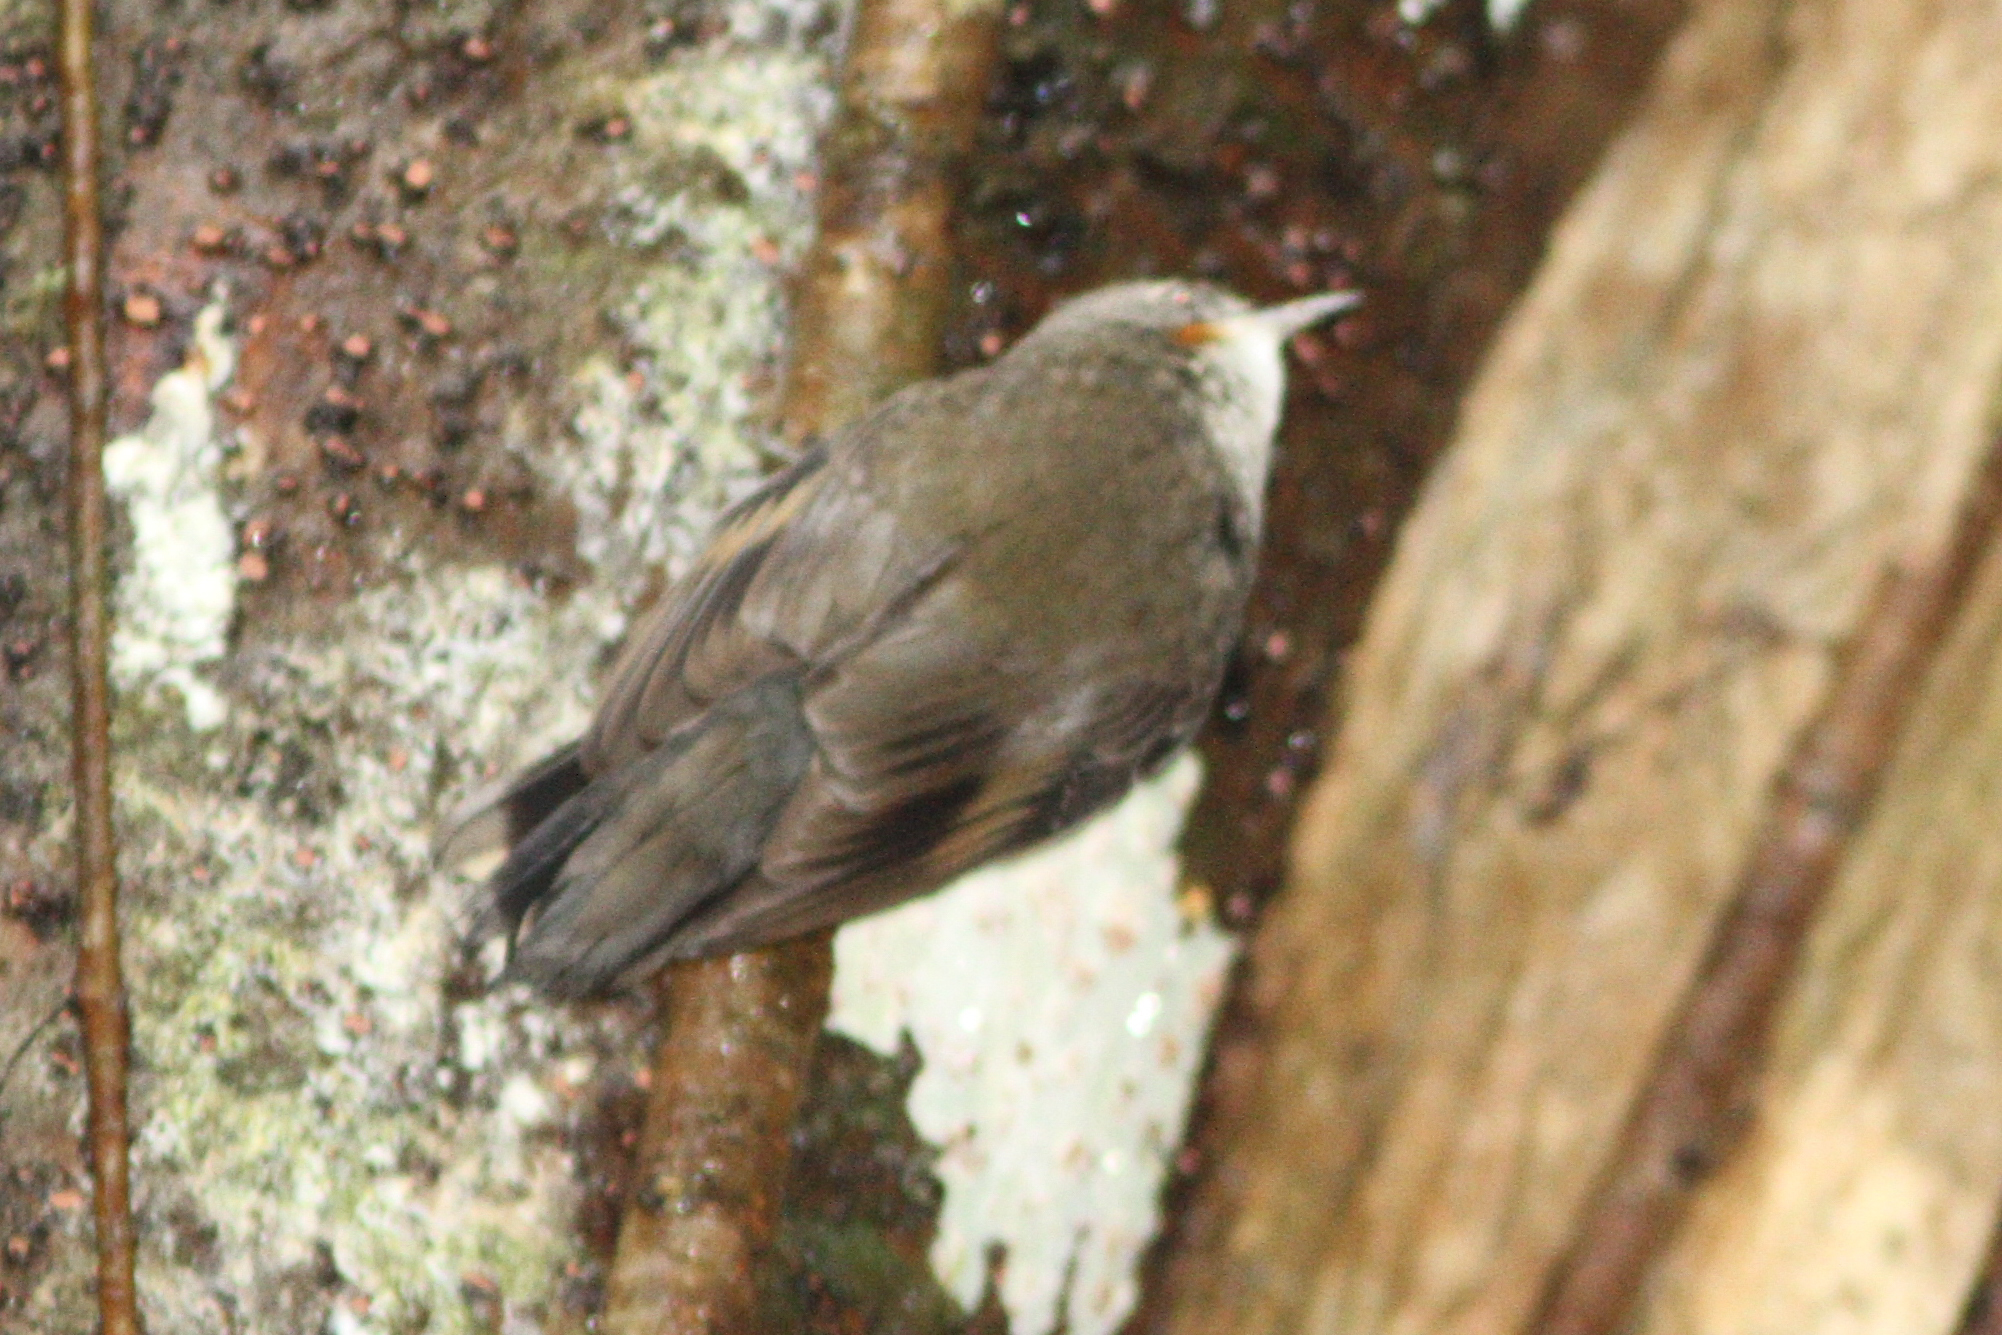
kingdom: Animalia
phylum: Chordata
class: Aves
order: Passeriformes
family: Climacteridae
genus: Cormobates
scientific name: Cormobates leucophaea
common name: White-throated treecreeper
